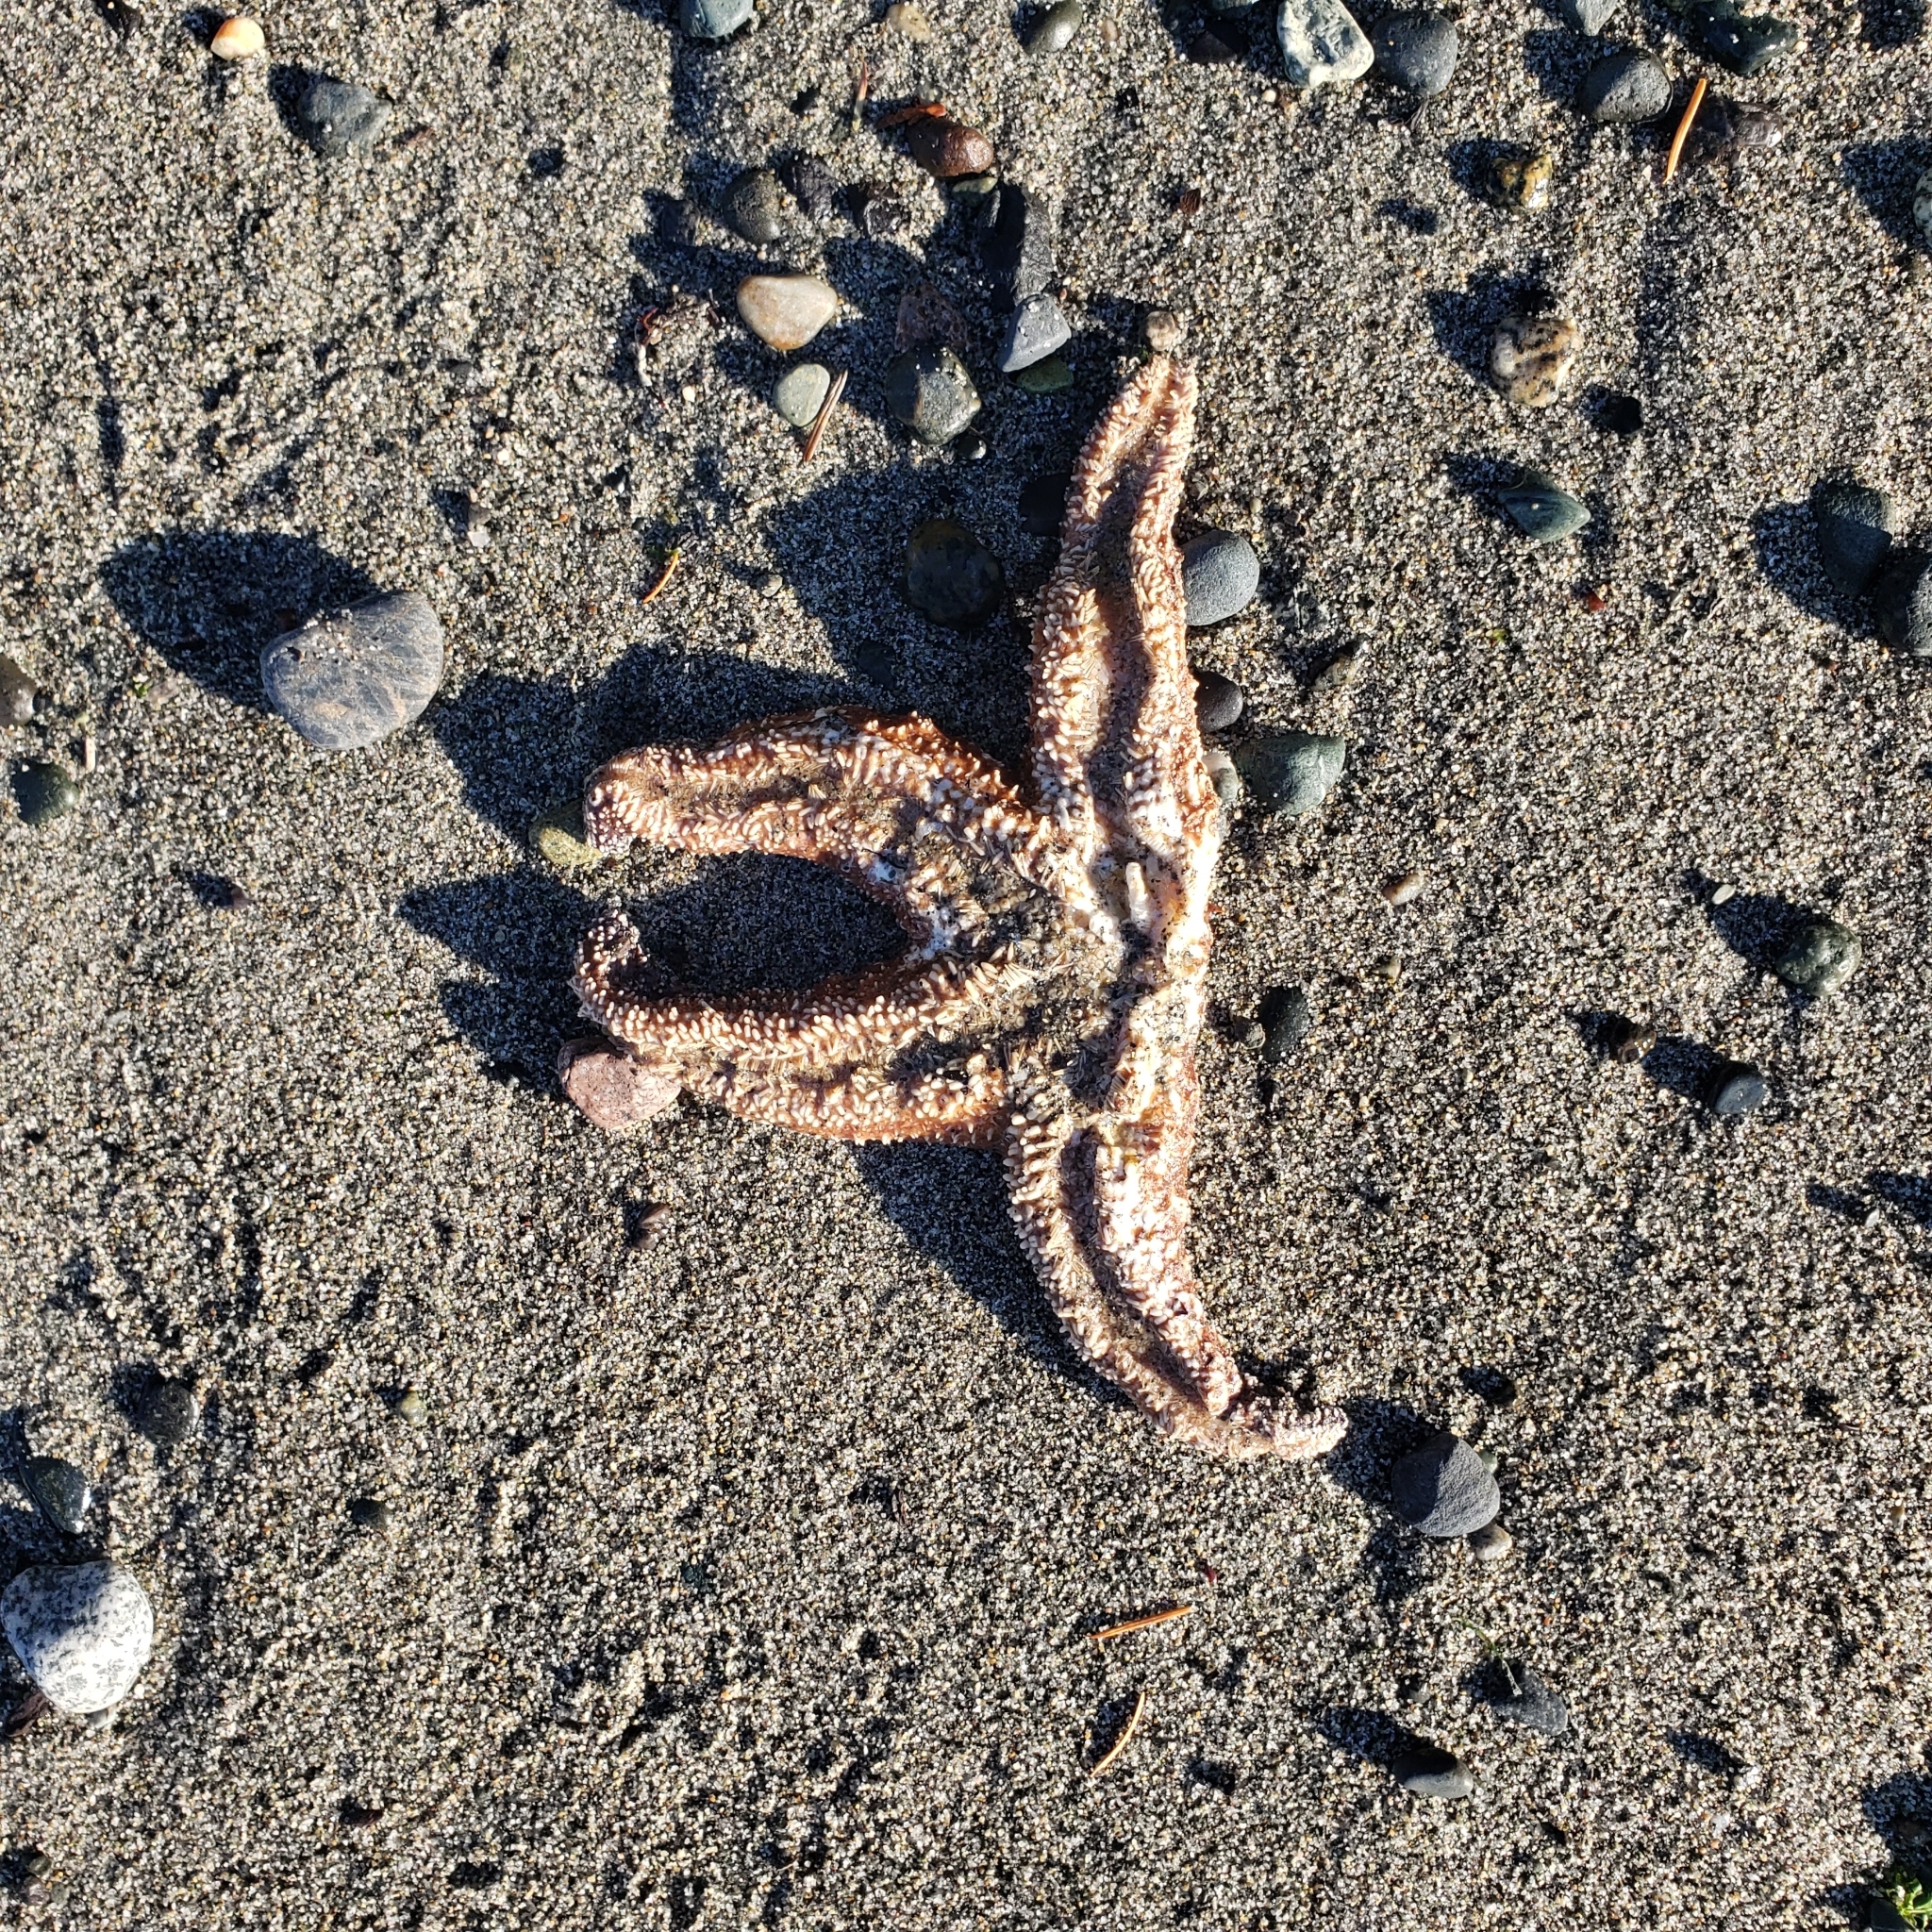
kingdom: Animalia
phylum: Echinodermata
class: Asteroidea
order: Forcipulatida
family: Asteriidae
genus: Pisaster
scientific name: Pisaster ochraceus
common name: Ochre stars
